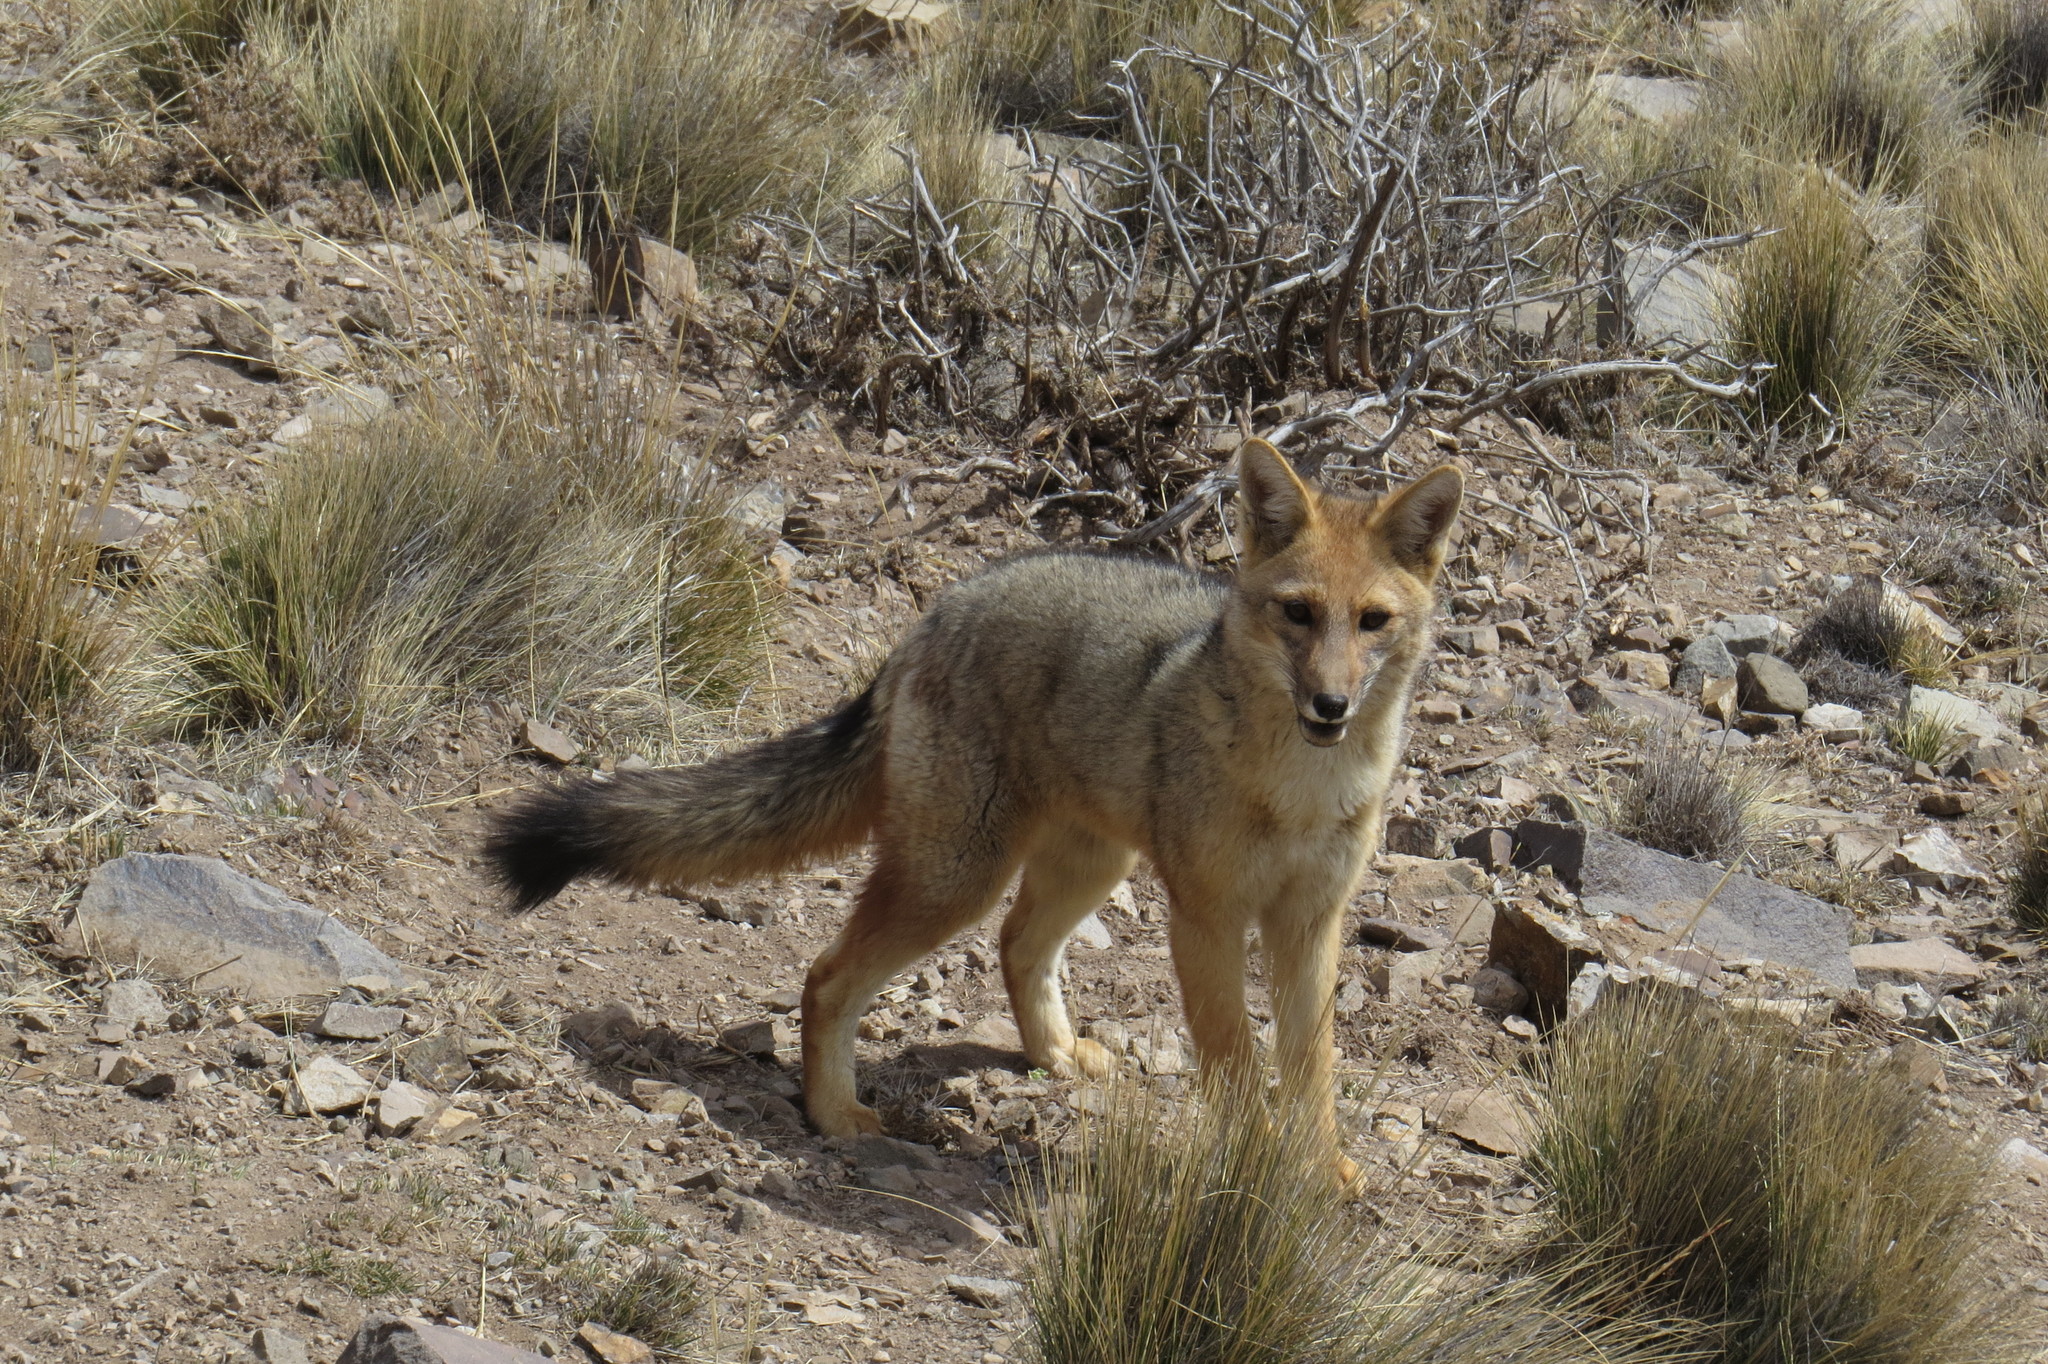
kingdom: Animalia
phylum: Chordata
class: Mammalia
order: Carnivora
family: Canidae
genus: Lycalopex
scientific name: Lycalopex culpaeus
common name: Culpeo
